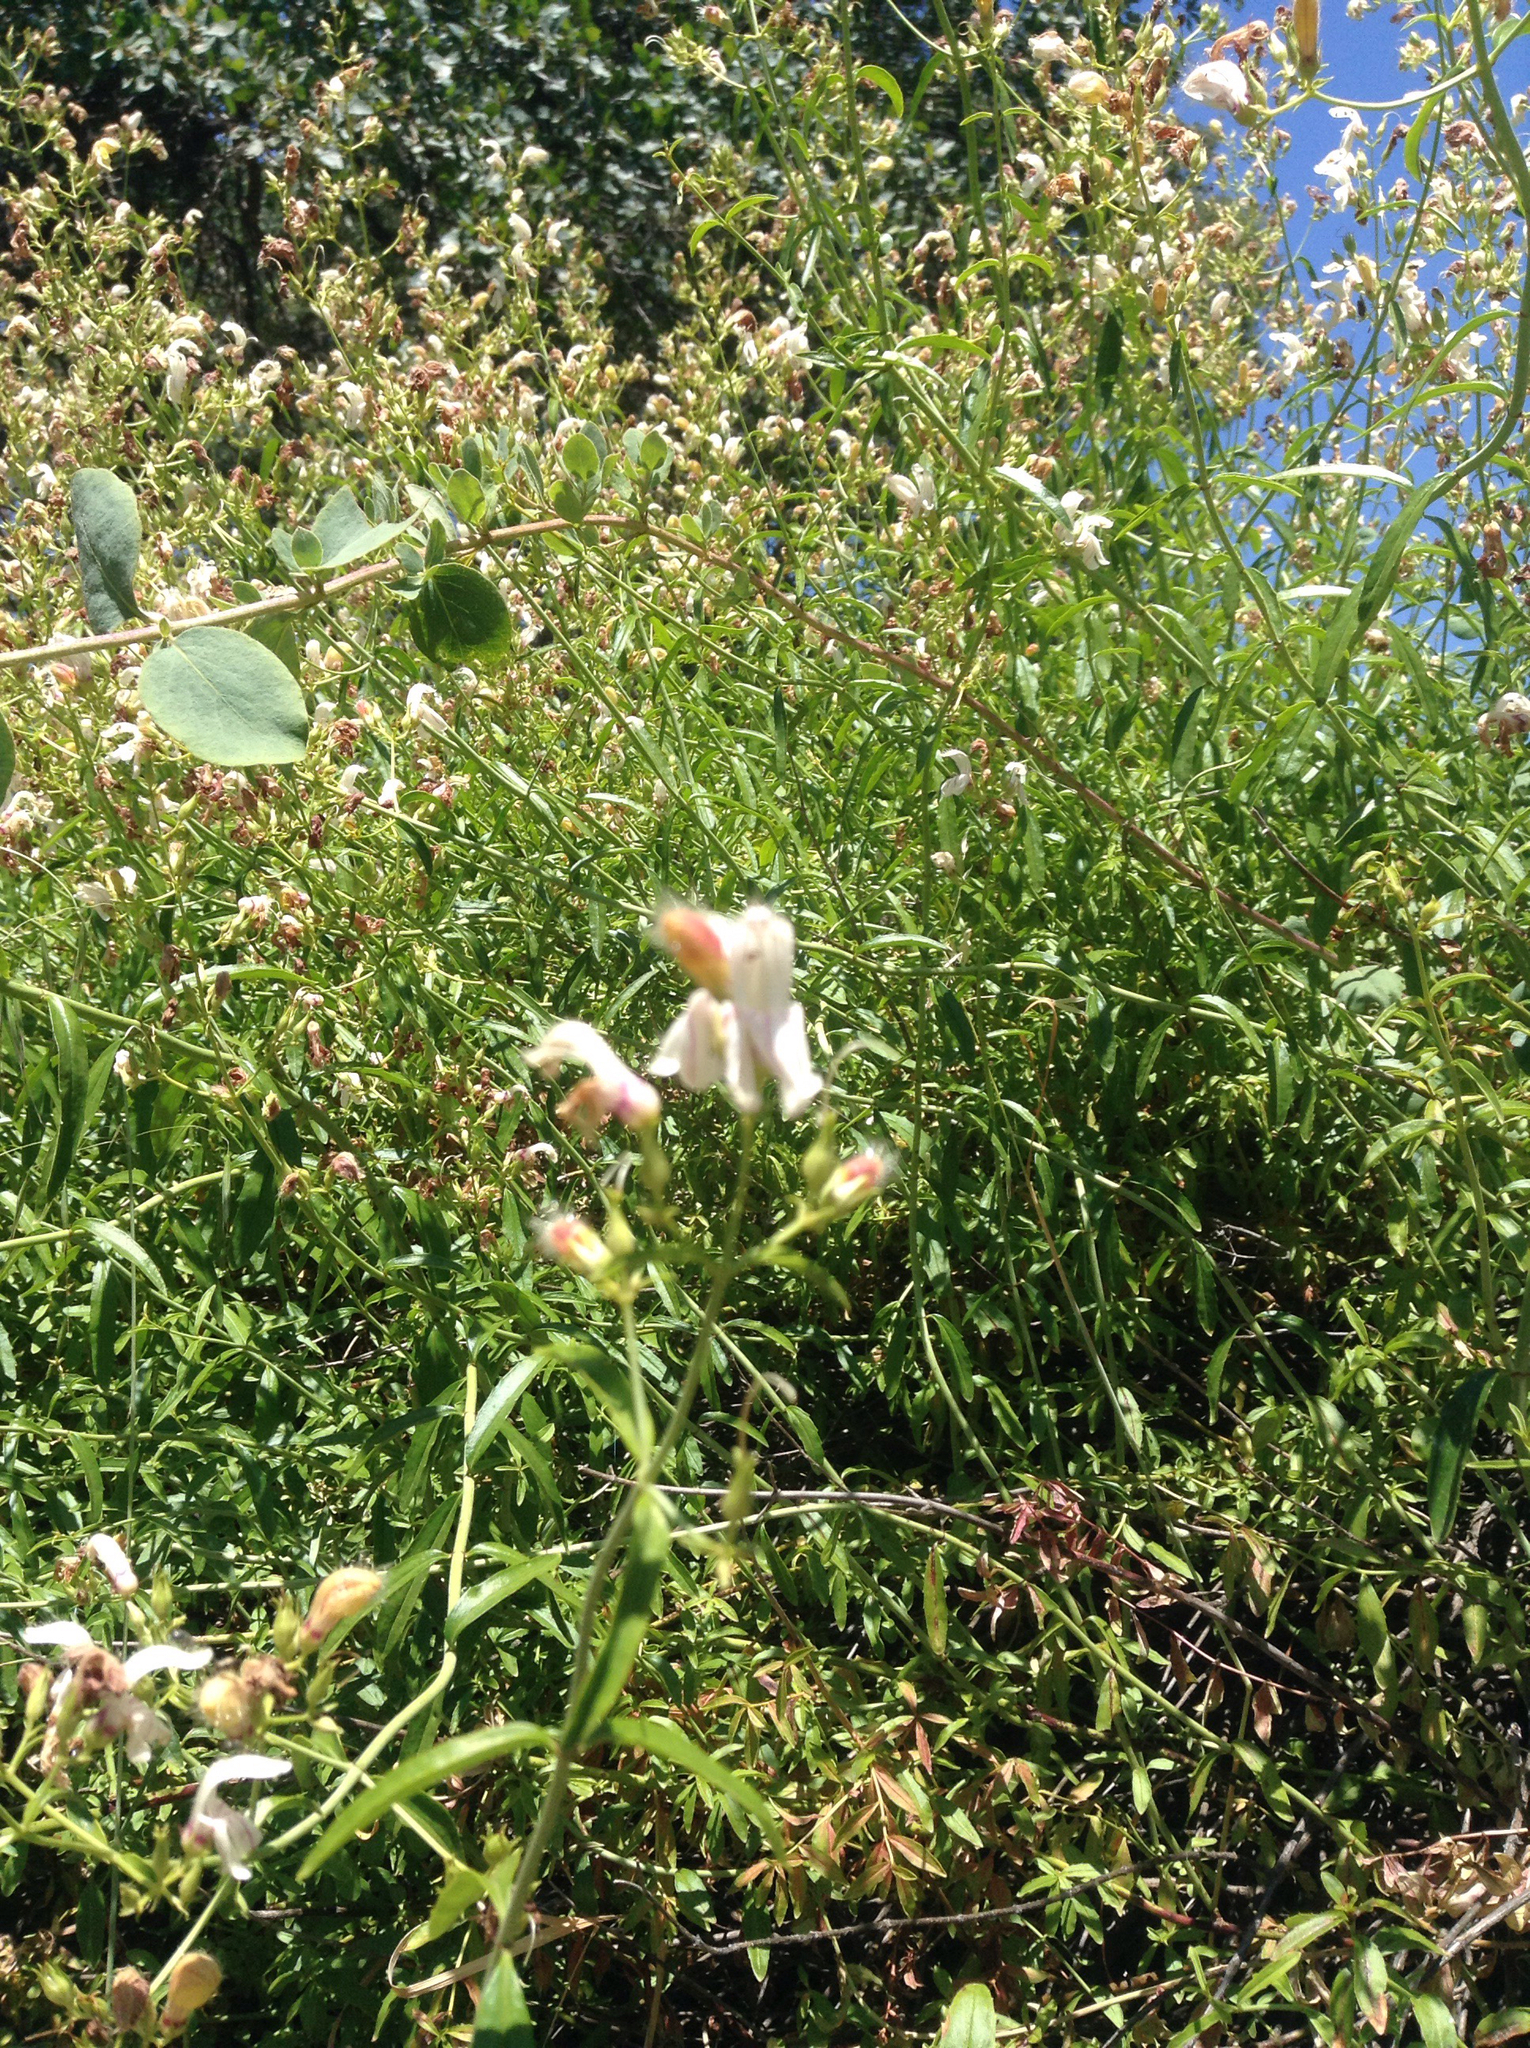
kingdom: Plantae
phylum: Tracheophyta
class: Magnoliopsida
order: Lamiales
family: Plantaginaceae
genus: Keckiella
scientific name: Keckiella breviflora
